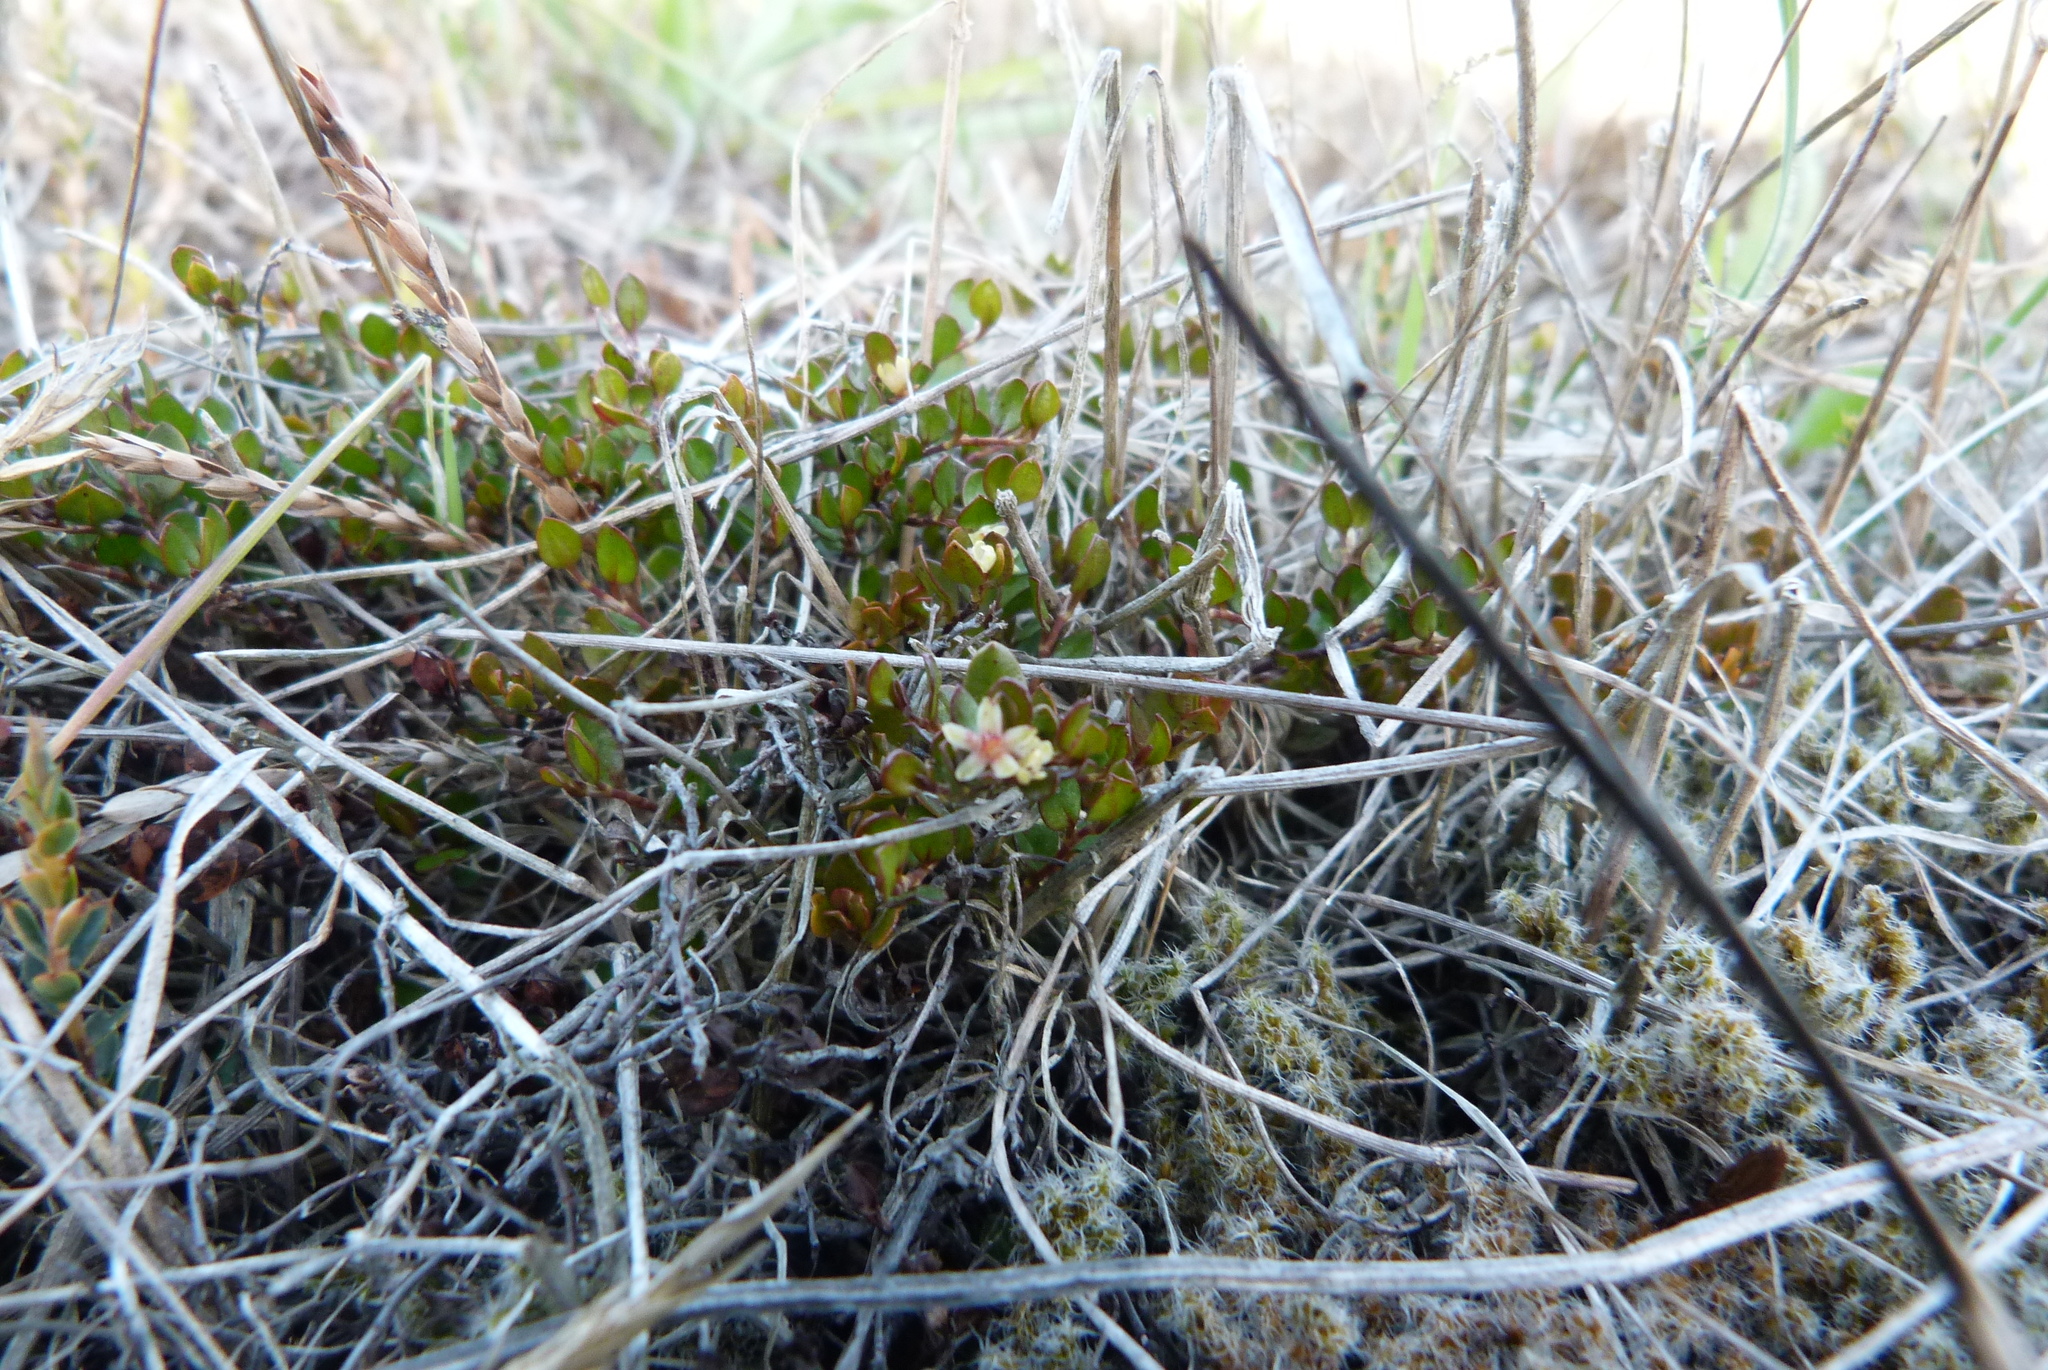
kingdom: Plantae
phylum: Tracheophyta
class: Magnoliopsida
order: Caryophyllales
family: Polygonaceae
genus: Muehlenbeckia
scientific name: Muehlenbeckia axillaris
